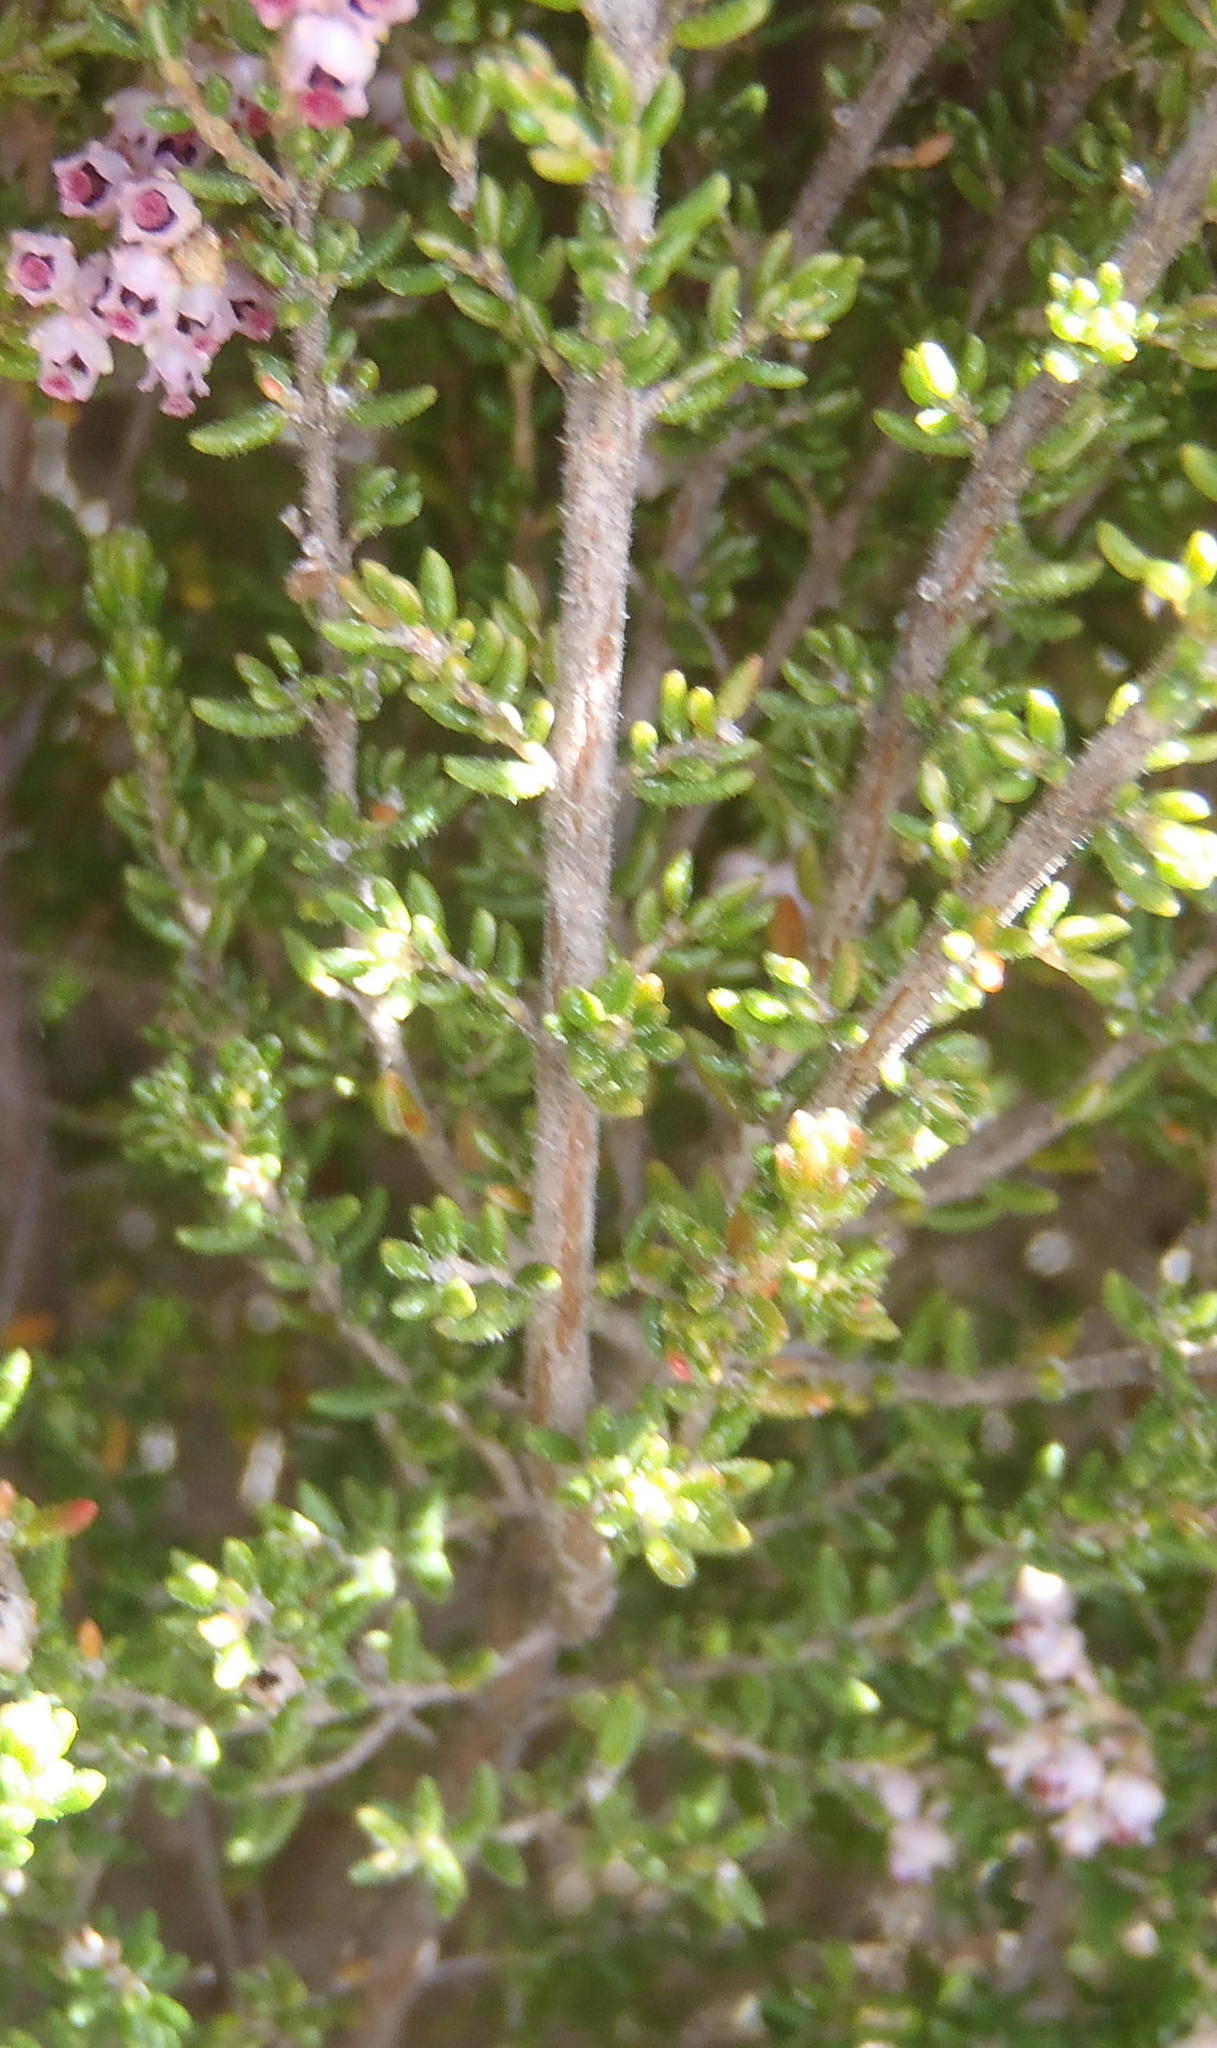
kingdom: Plantae
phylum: Tracheophyta
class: Magnoliopsida
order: Ericales
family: Ericaceae
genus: Erica
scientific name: Erica hispidula
